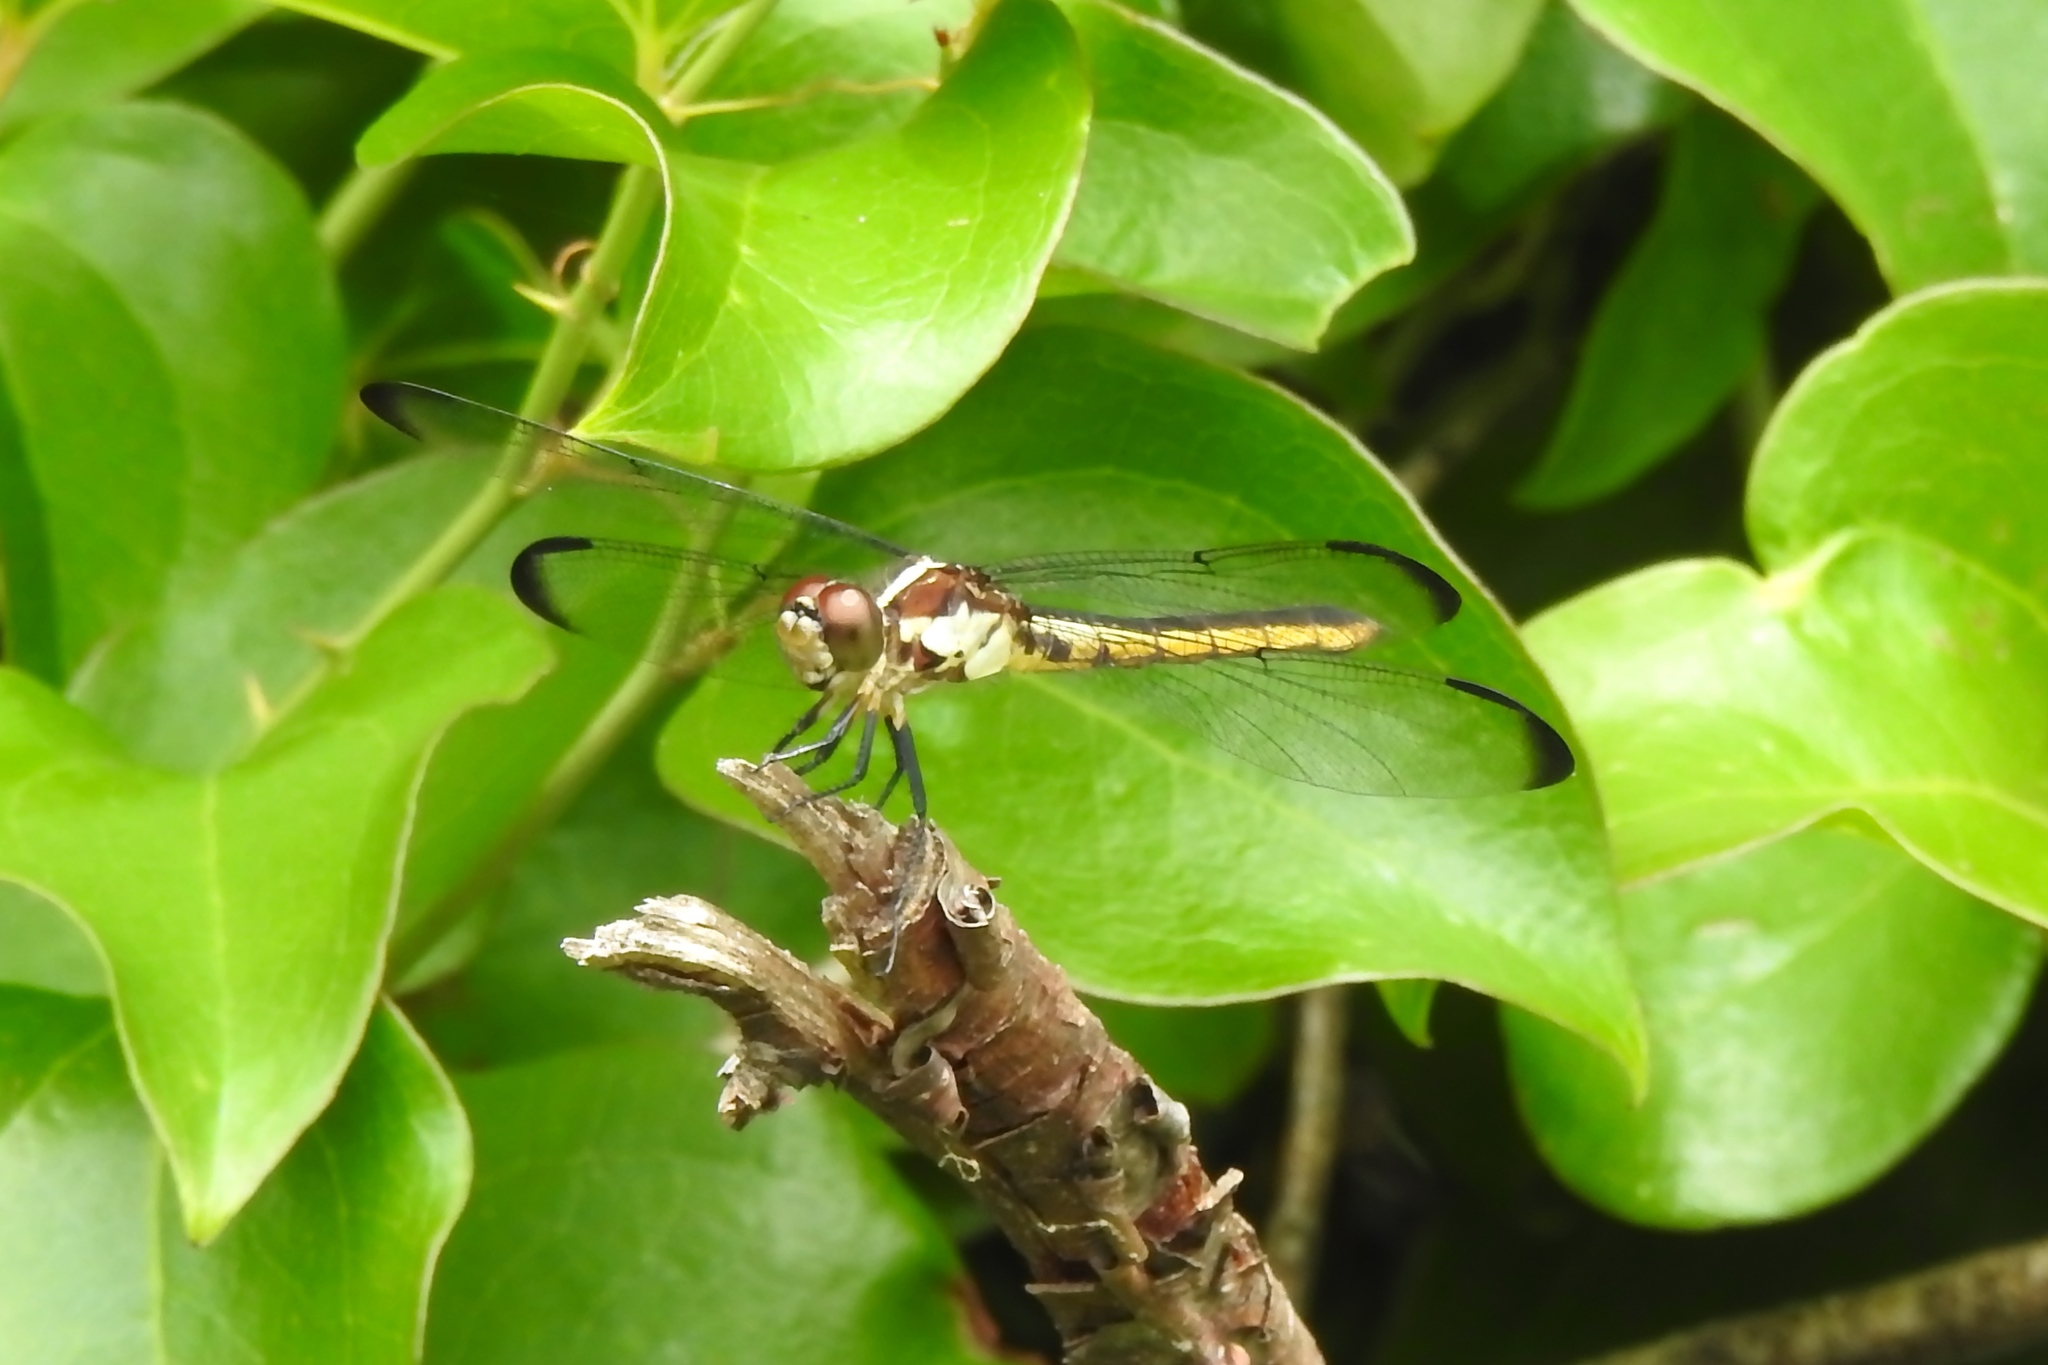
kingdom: Animalia
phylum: Arthropoda
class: Insecta
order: Odonata
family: Libellulidae
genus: Libellula
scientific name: Libellula vibrans
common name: Great blue skimmer
